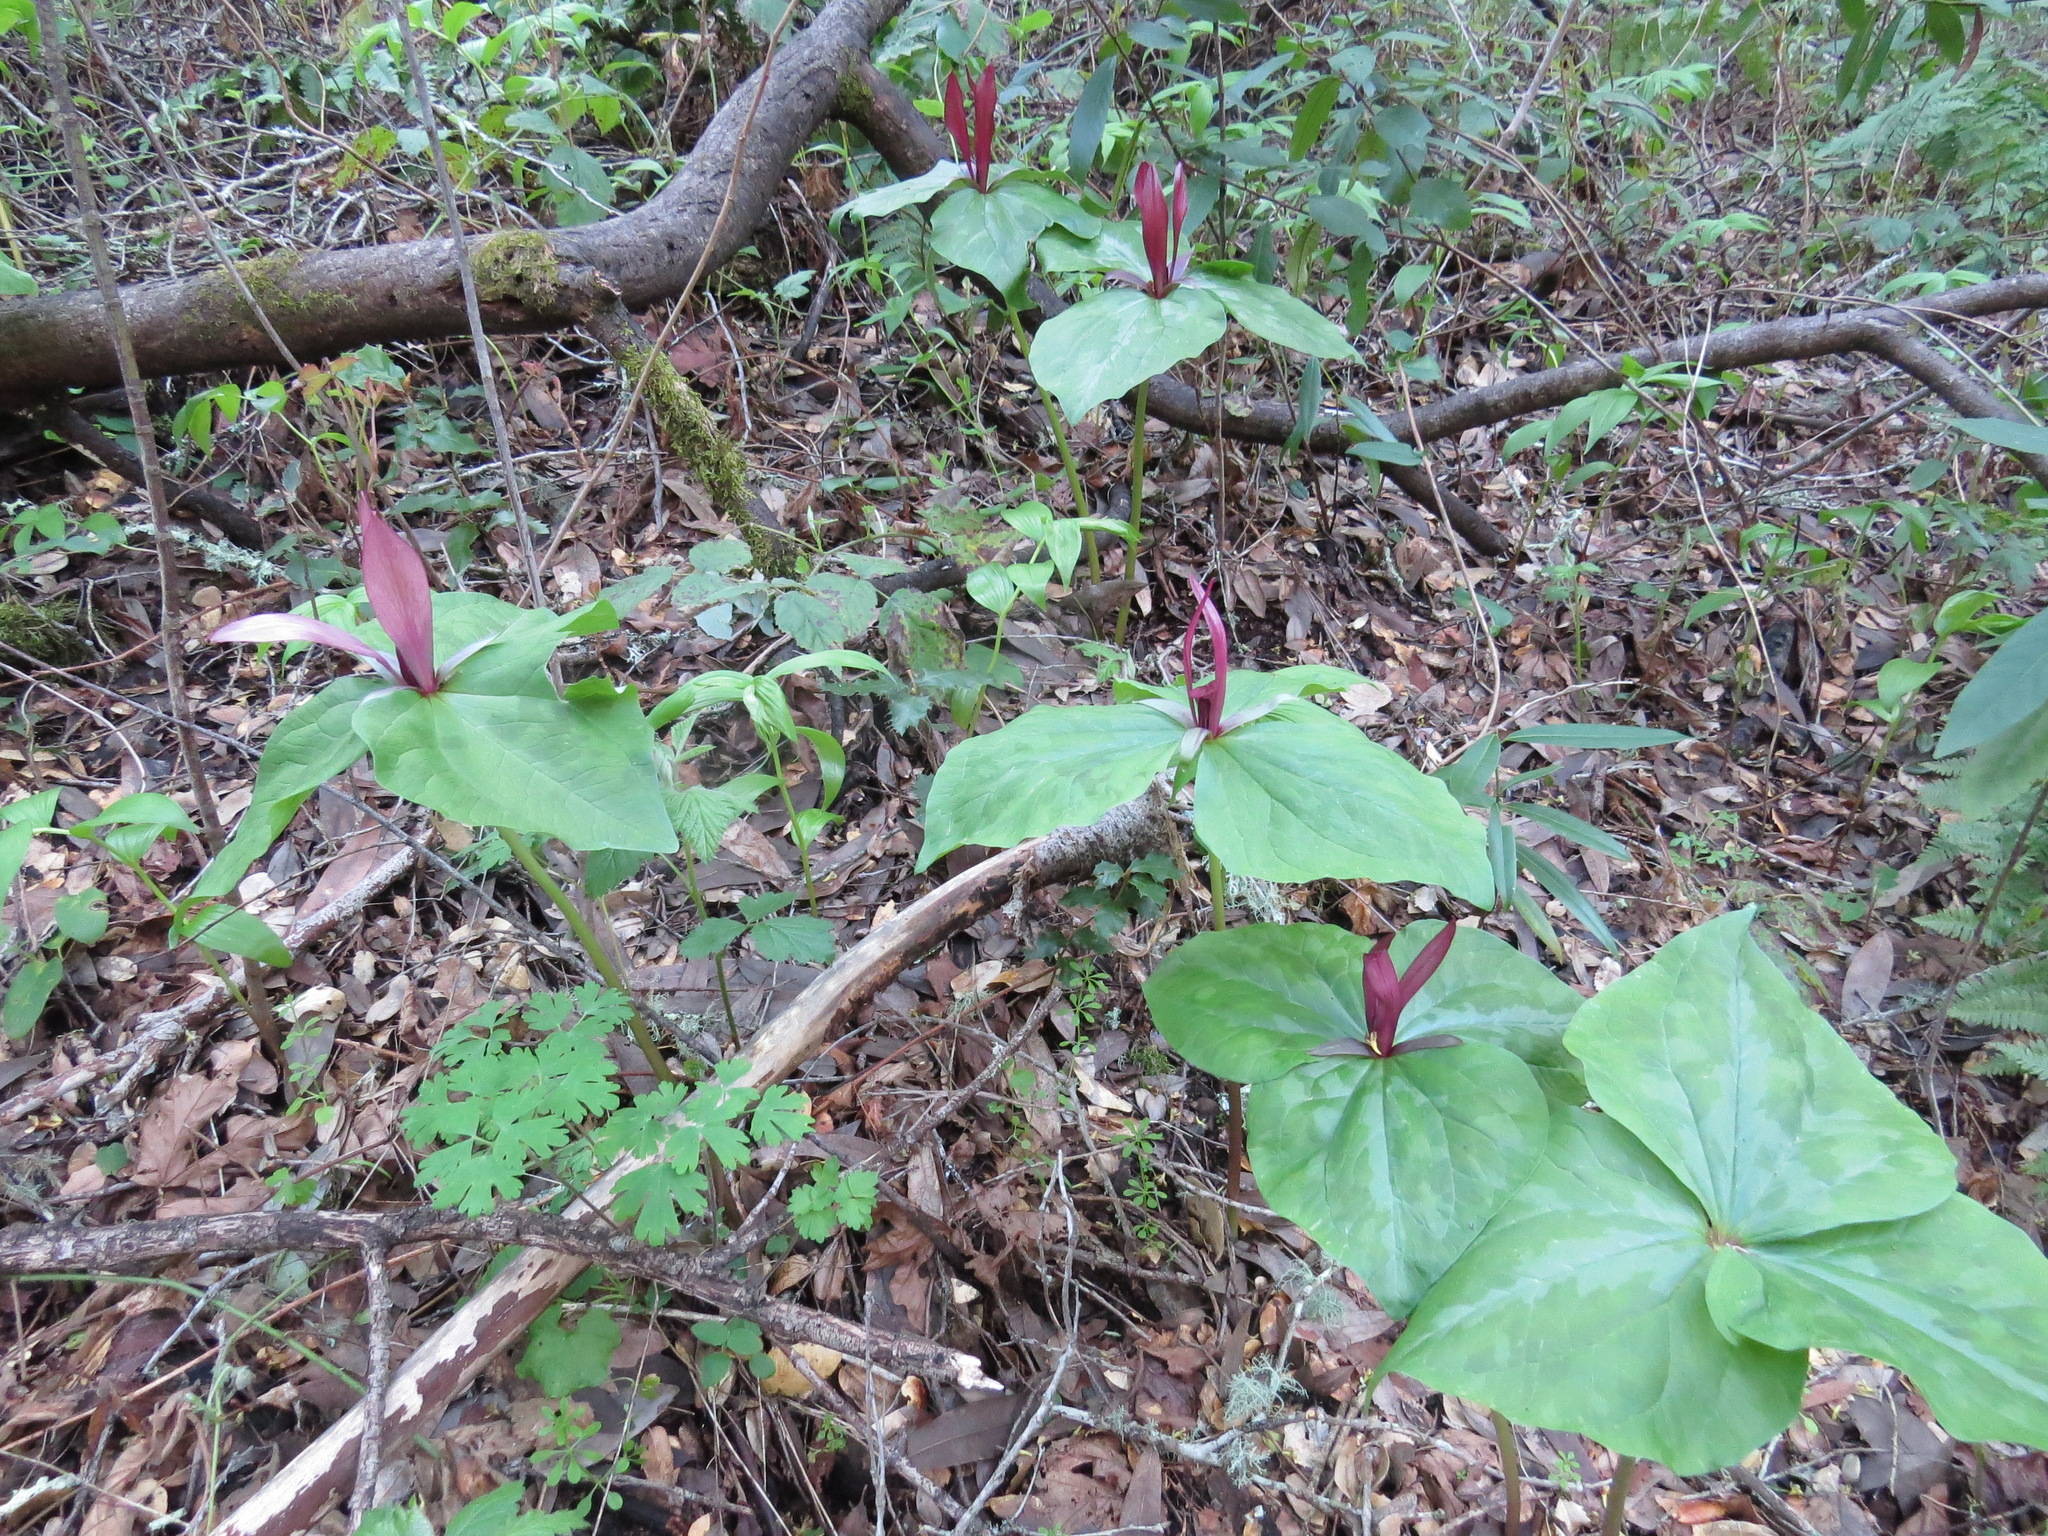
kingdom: Plantae
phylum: Tracheophyta
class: Liliopsida
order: Liliales
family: Melanthiaceae
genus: Trillium
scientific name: Trillium chloropetalum
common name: Giant trillium
